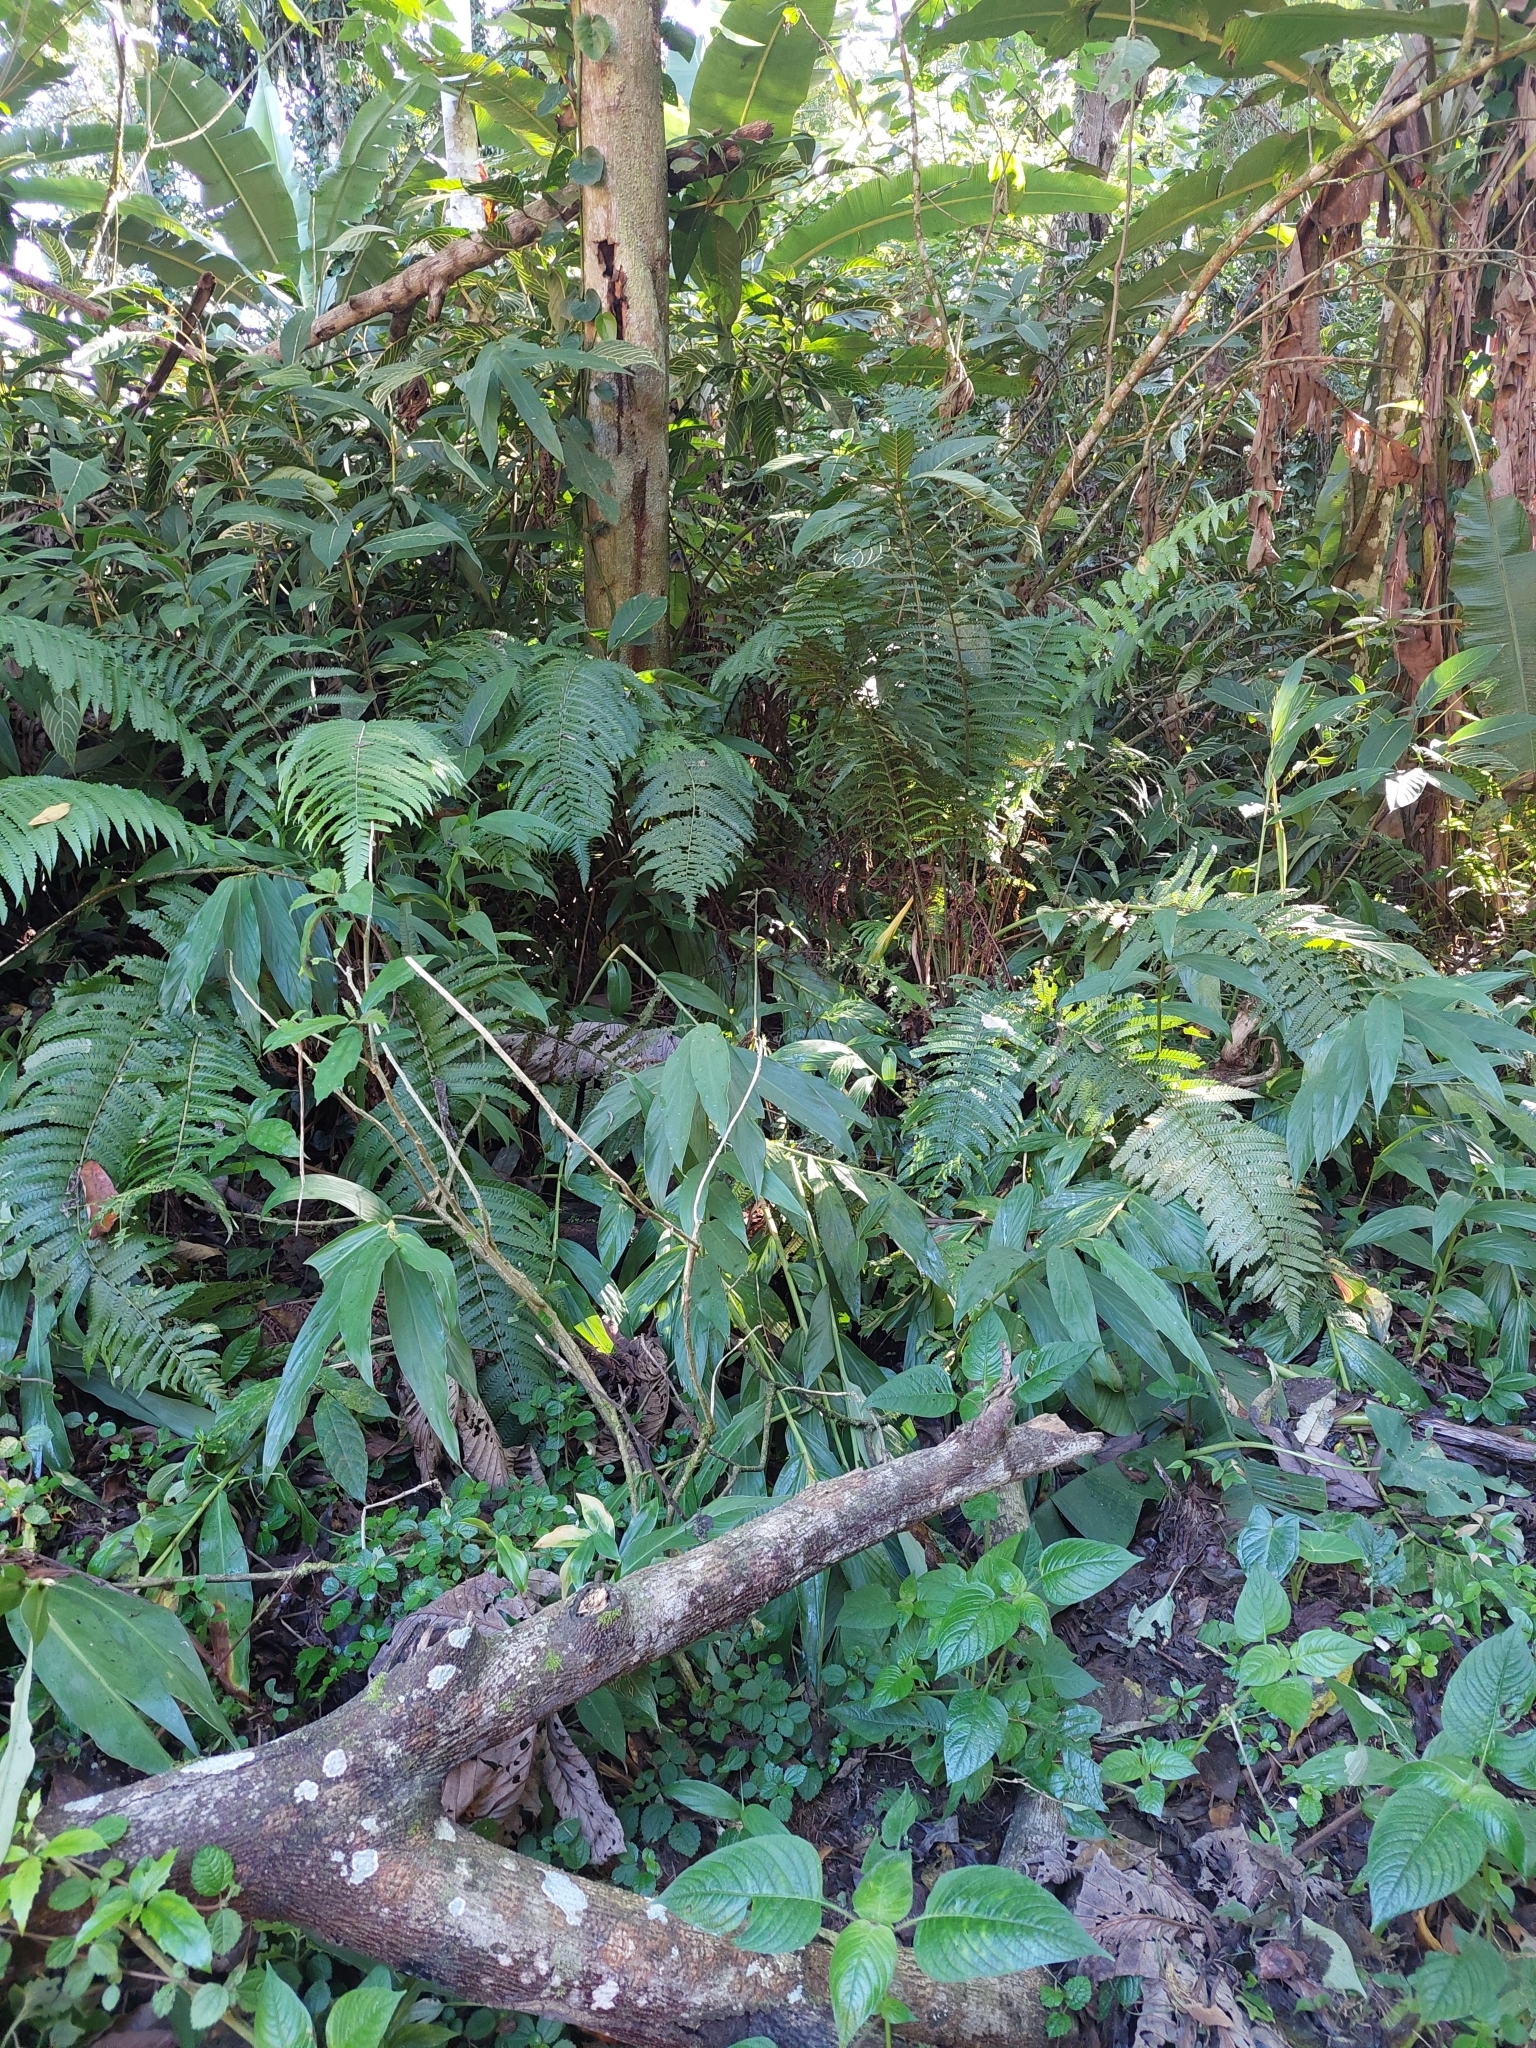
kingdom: Plantae
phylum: Tracheophyta
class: Liliopsida
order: Zingiberales
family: Zingiberaceae
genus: Hedychium
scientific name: Hedychium coronarium
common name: White garland-lily
